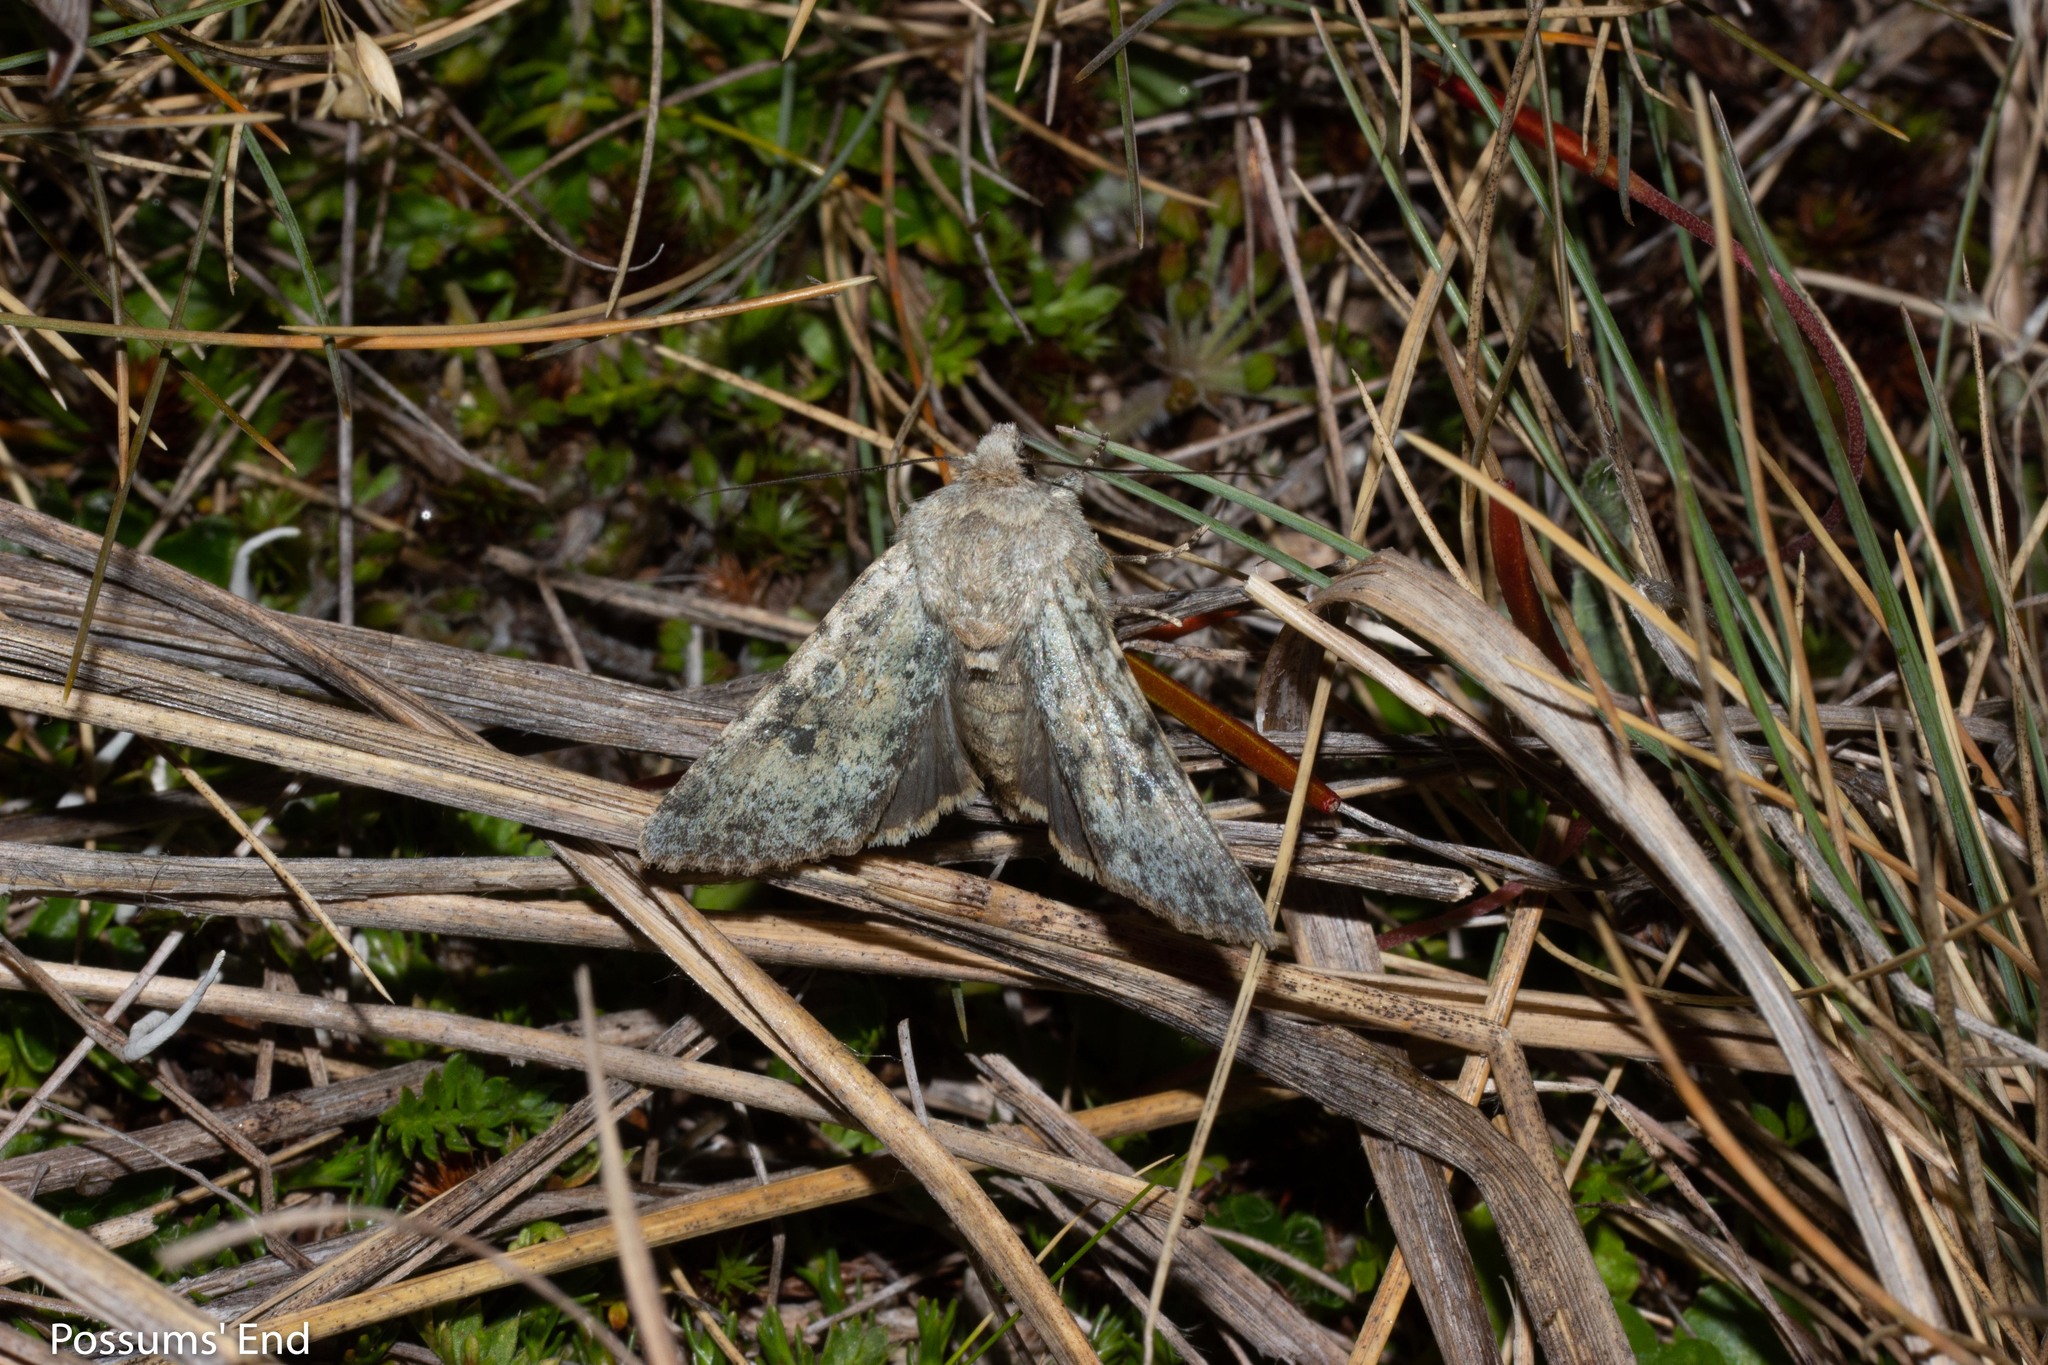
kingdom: Animalia
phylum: Arthropoda
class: Insecta
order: Lepidoptera
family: Noctuidae
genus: Ichneutica
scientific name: Ichneutica cuneata
